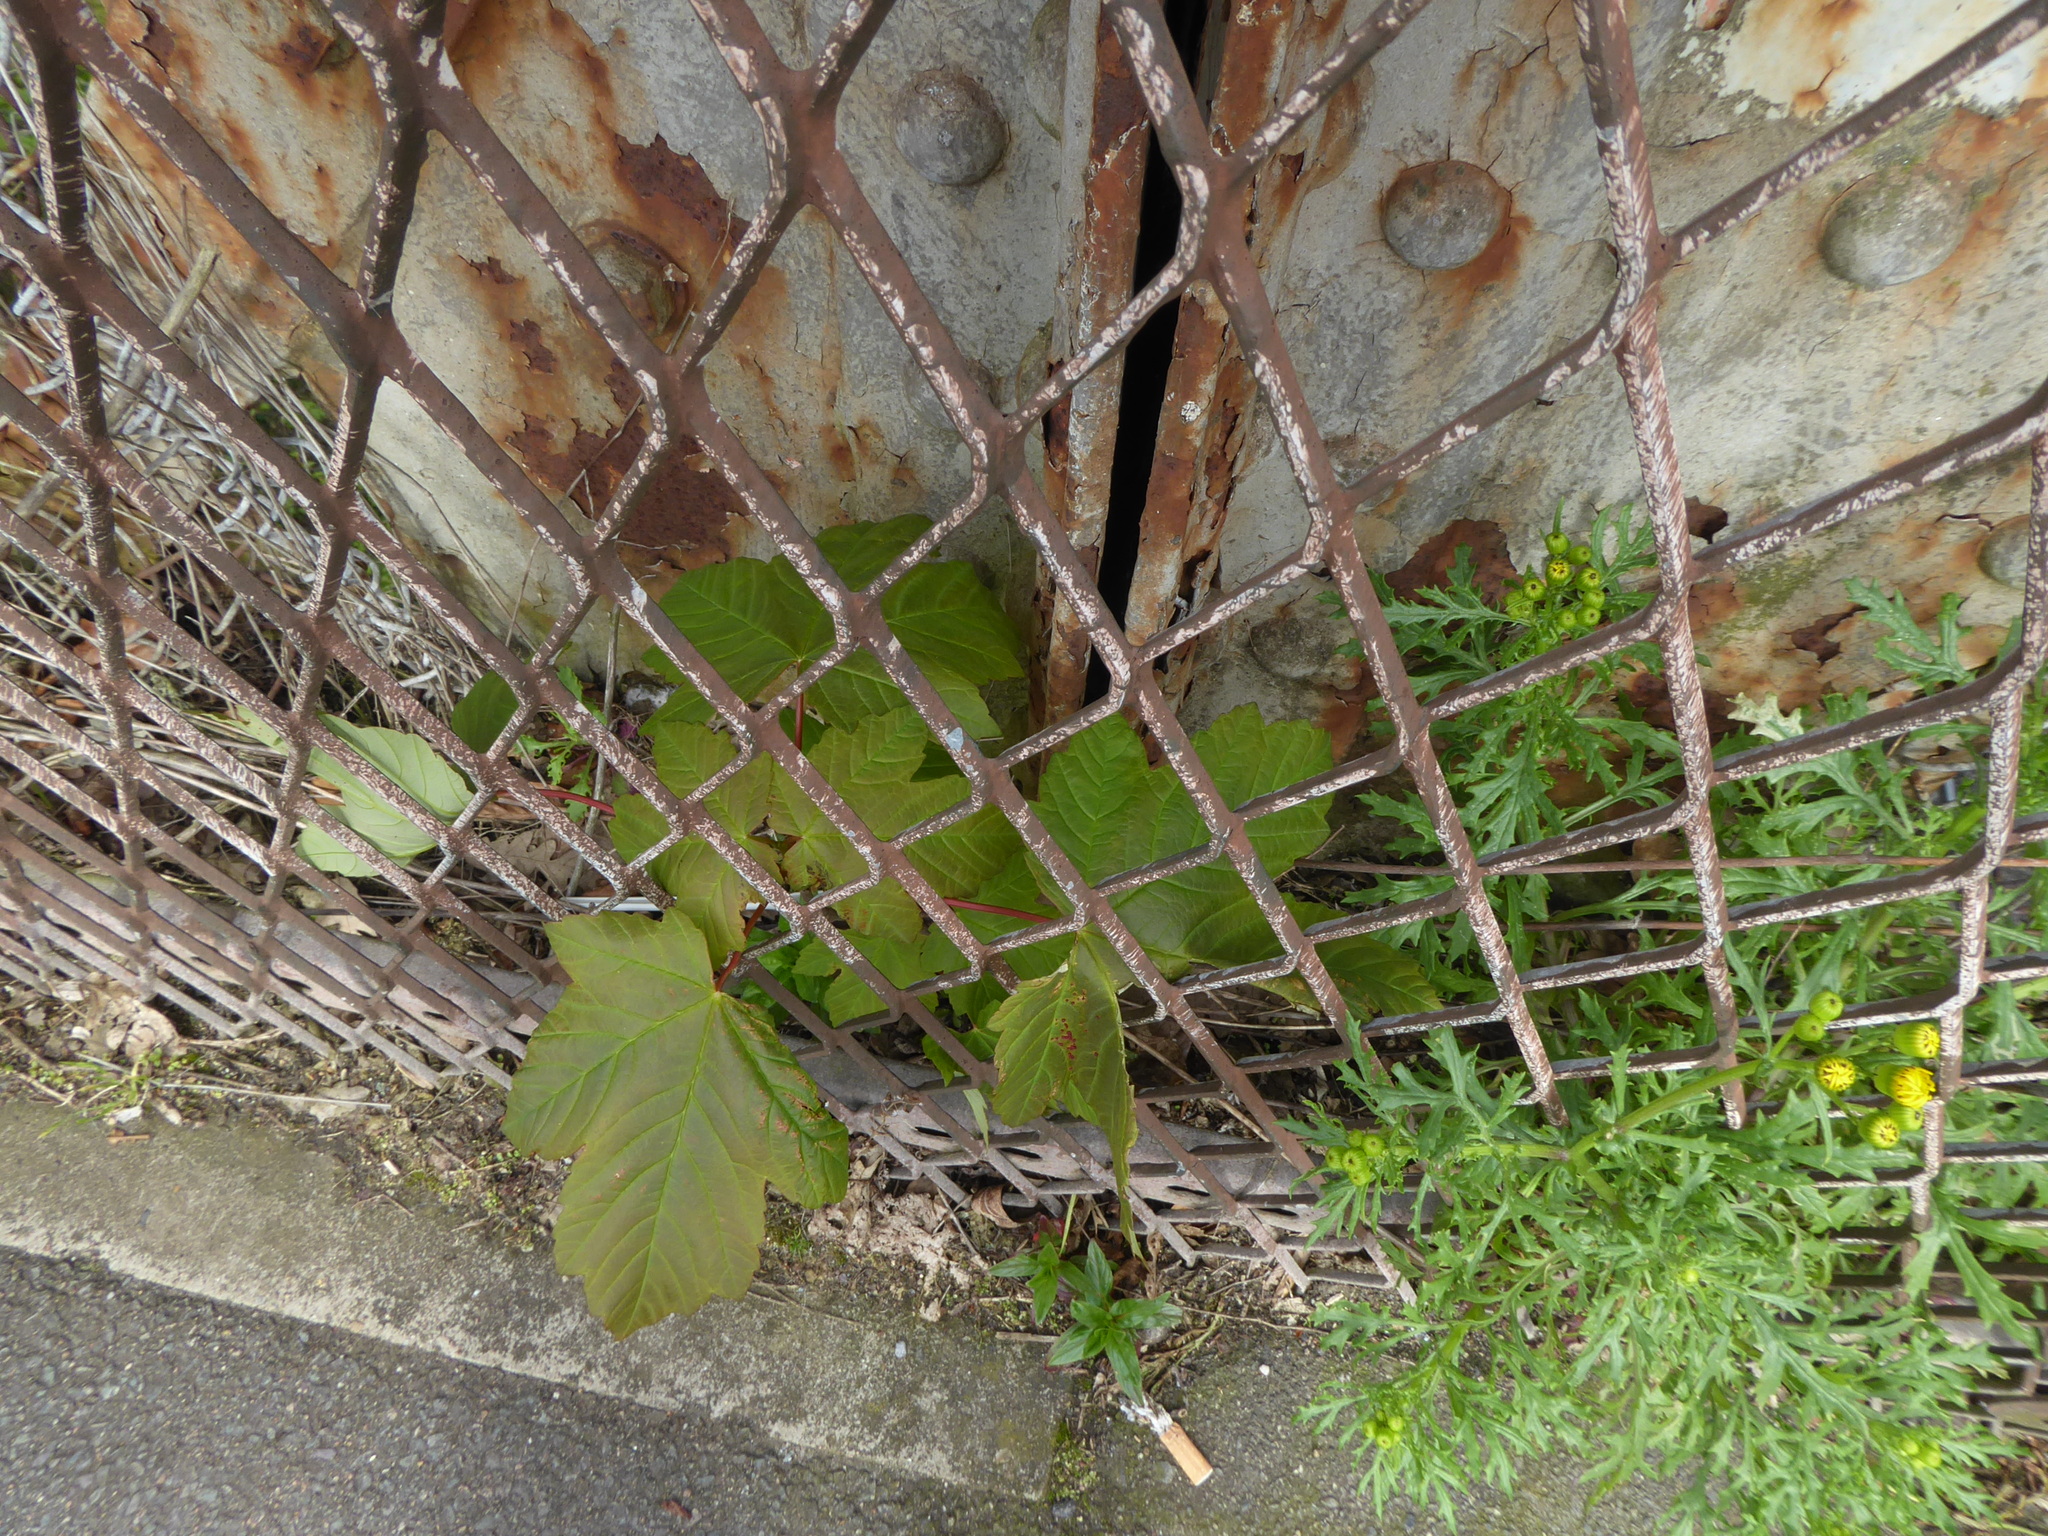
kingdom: Plantae
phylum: Tracheophyta
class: Magnoliopsida
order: Sapindales
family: Sapindaceae
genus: Acer
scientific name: Acer pseudoplatanus
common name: Sycamore
